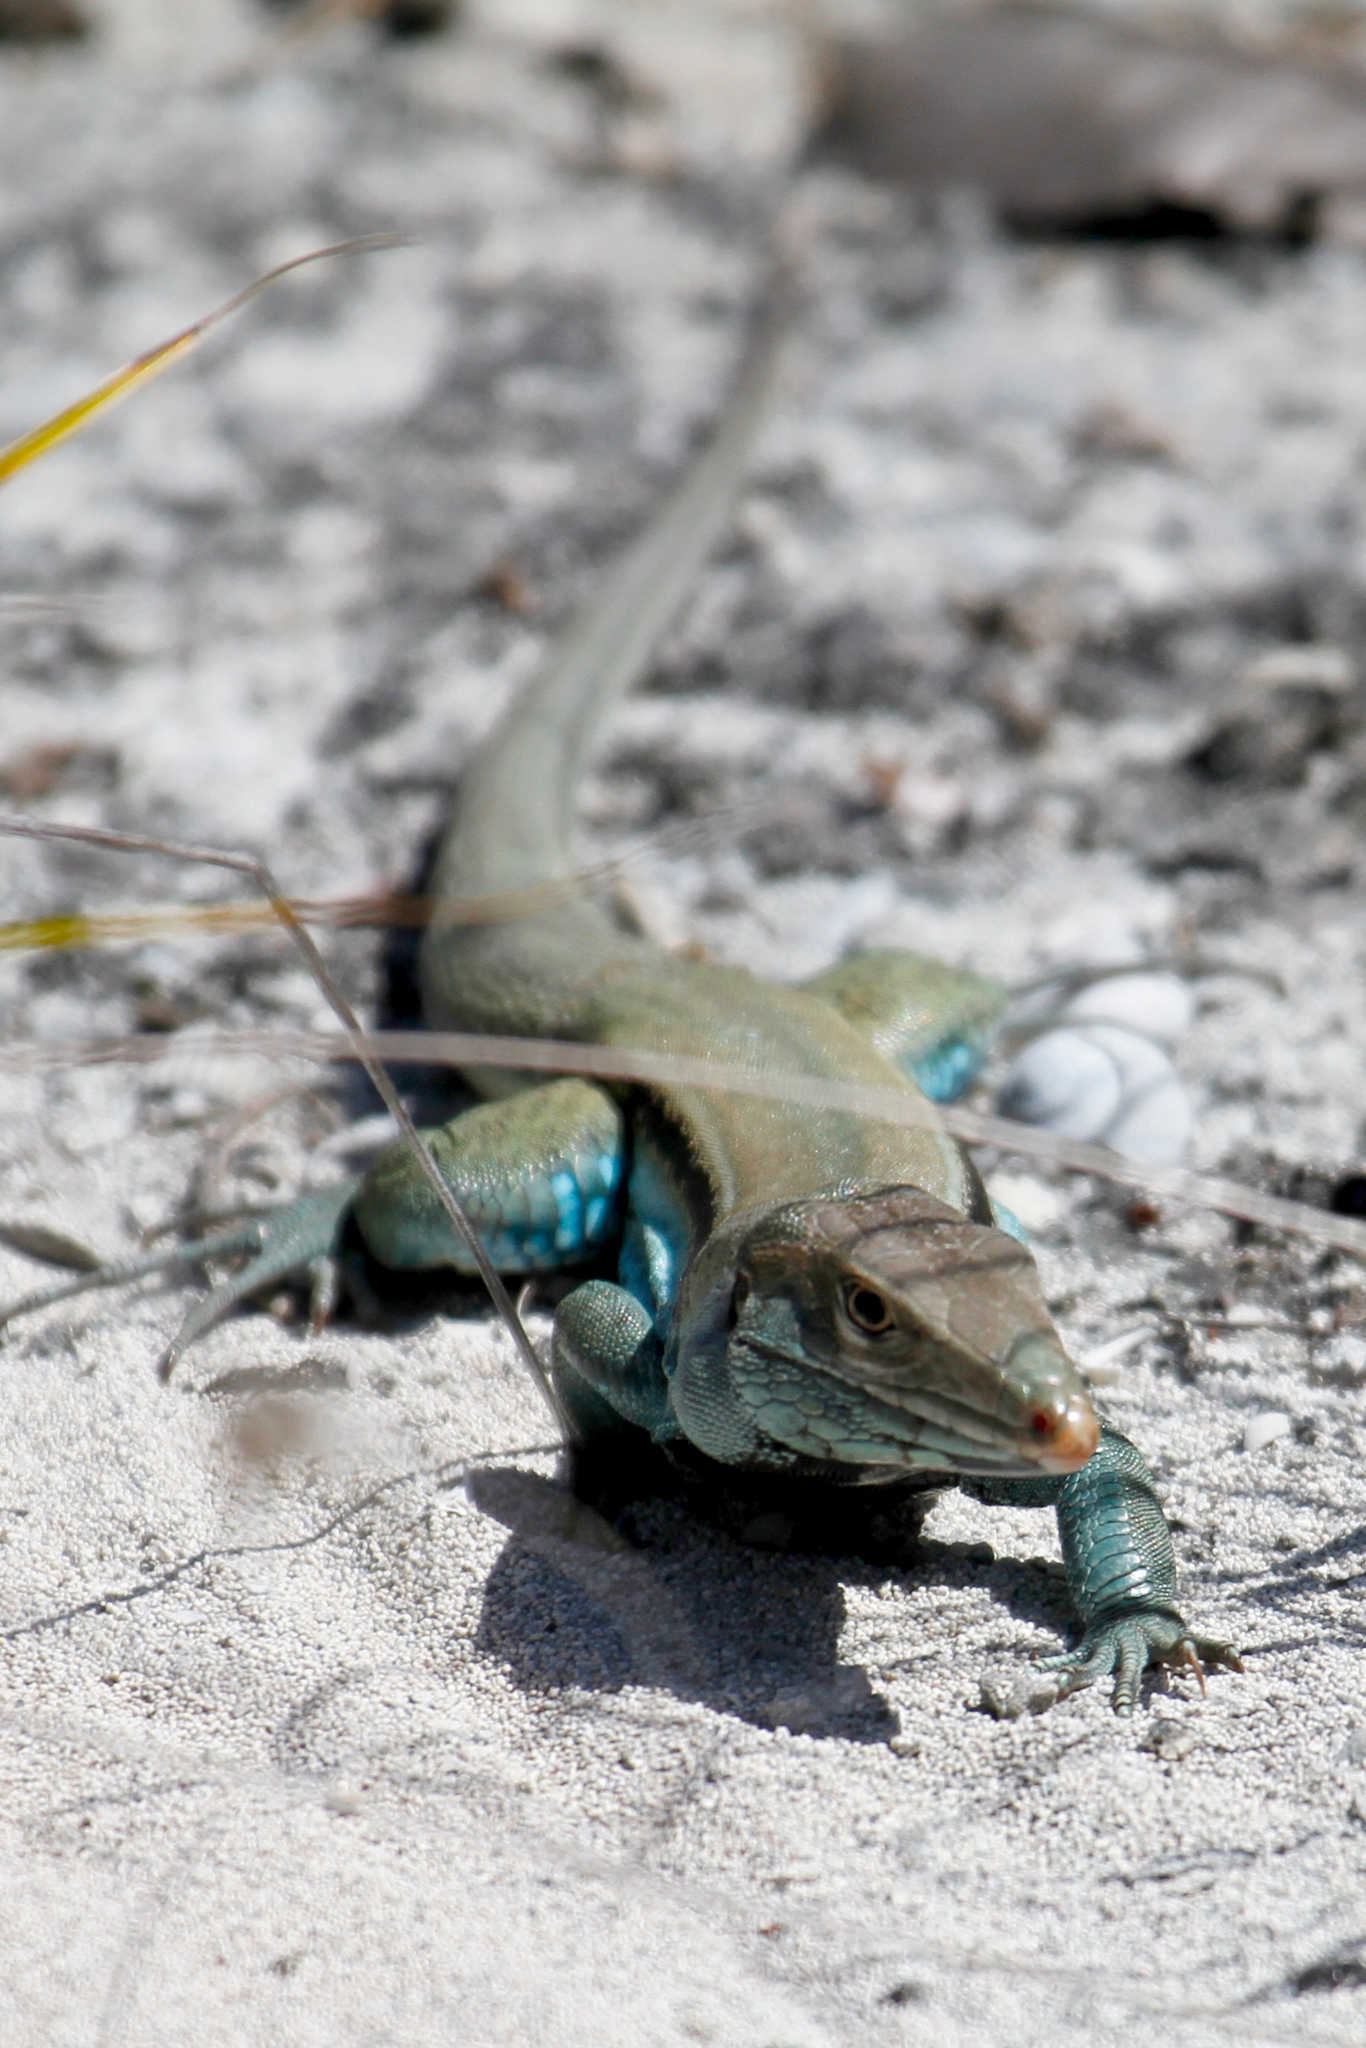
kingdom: Animalia
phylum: Chordata
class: Squamata
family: Teiidae
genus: Pholidoscelis
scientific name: Pholidoscelis auberi
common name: Auber's ameiva
